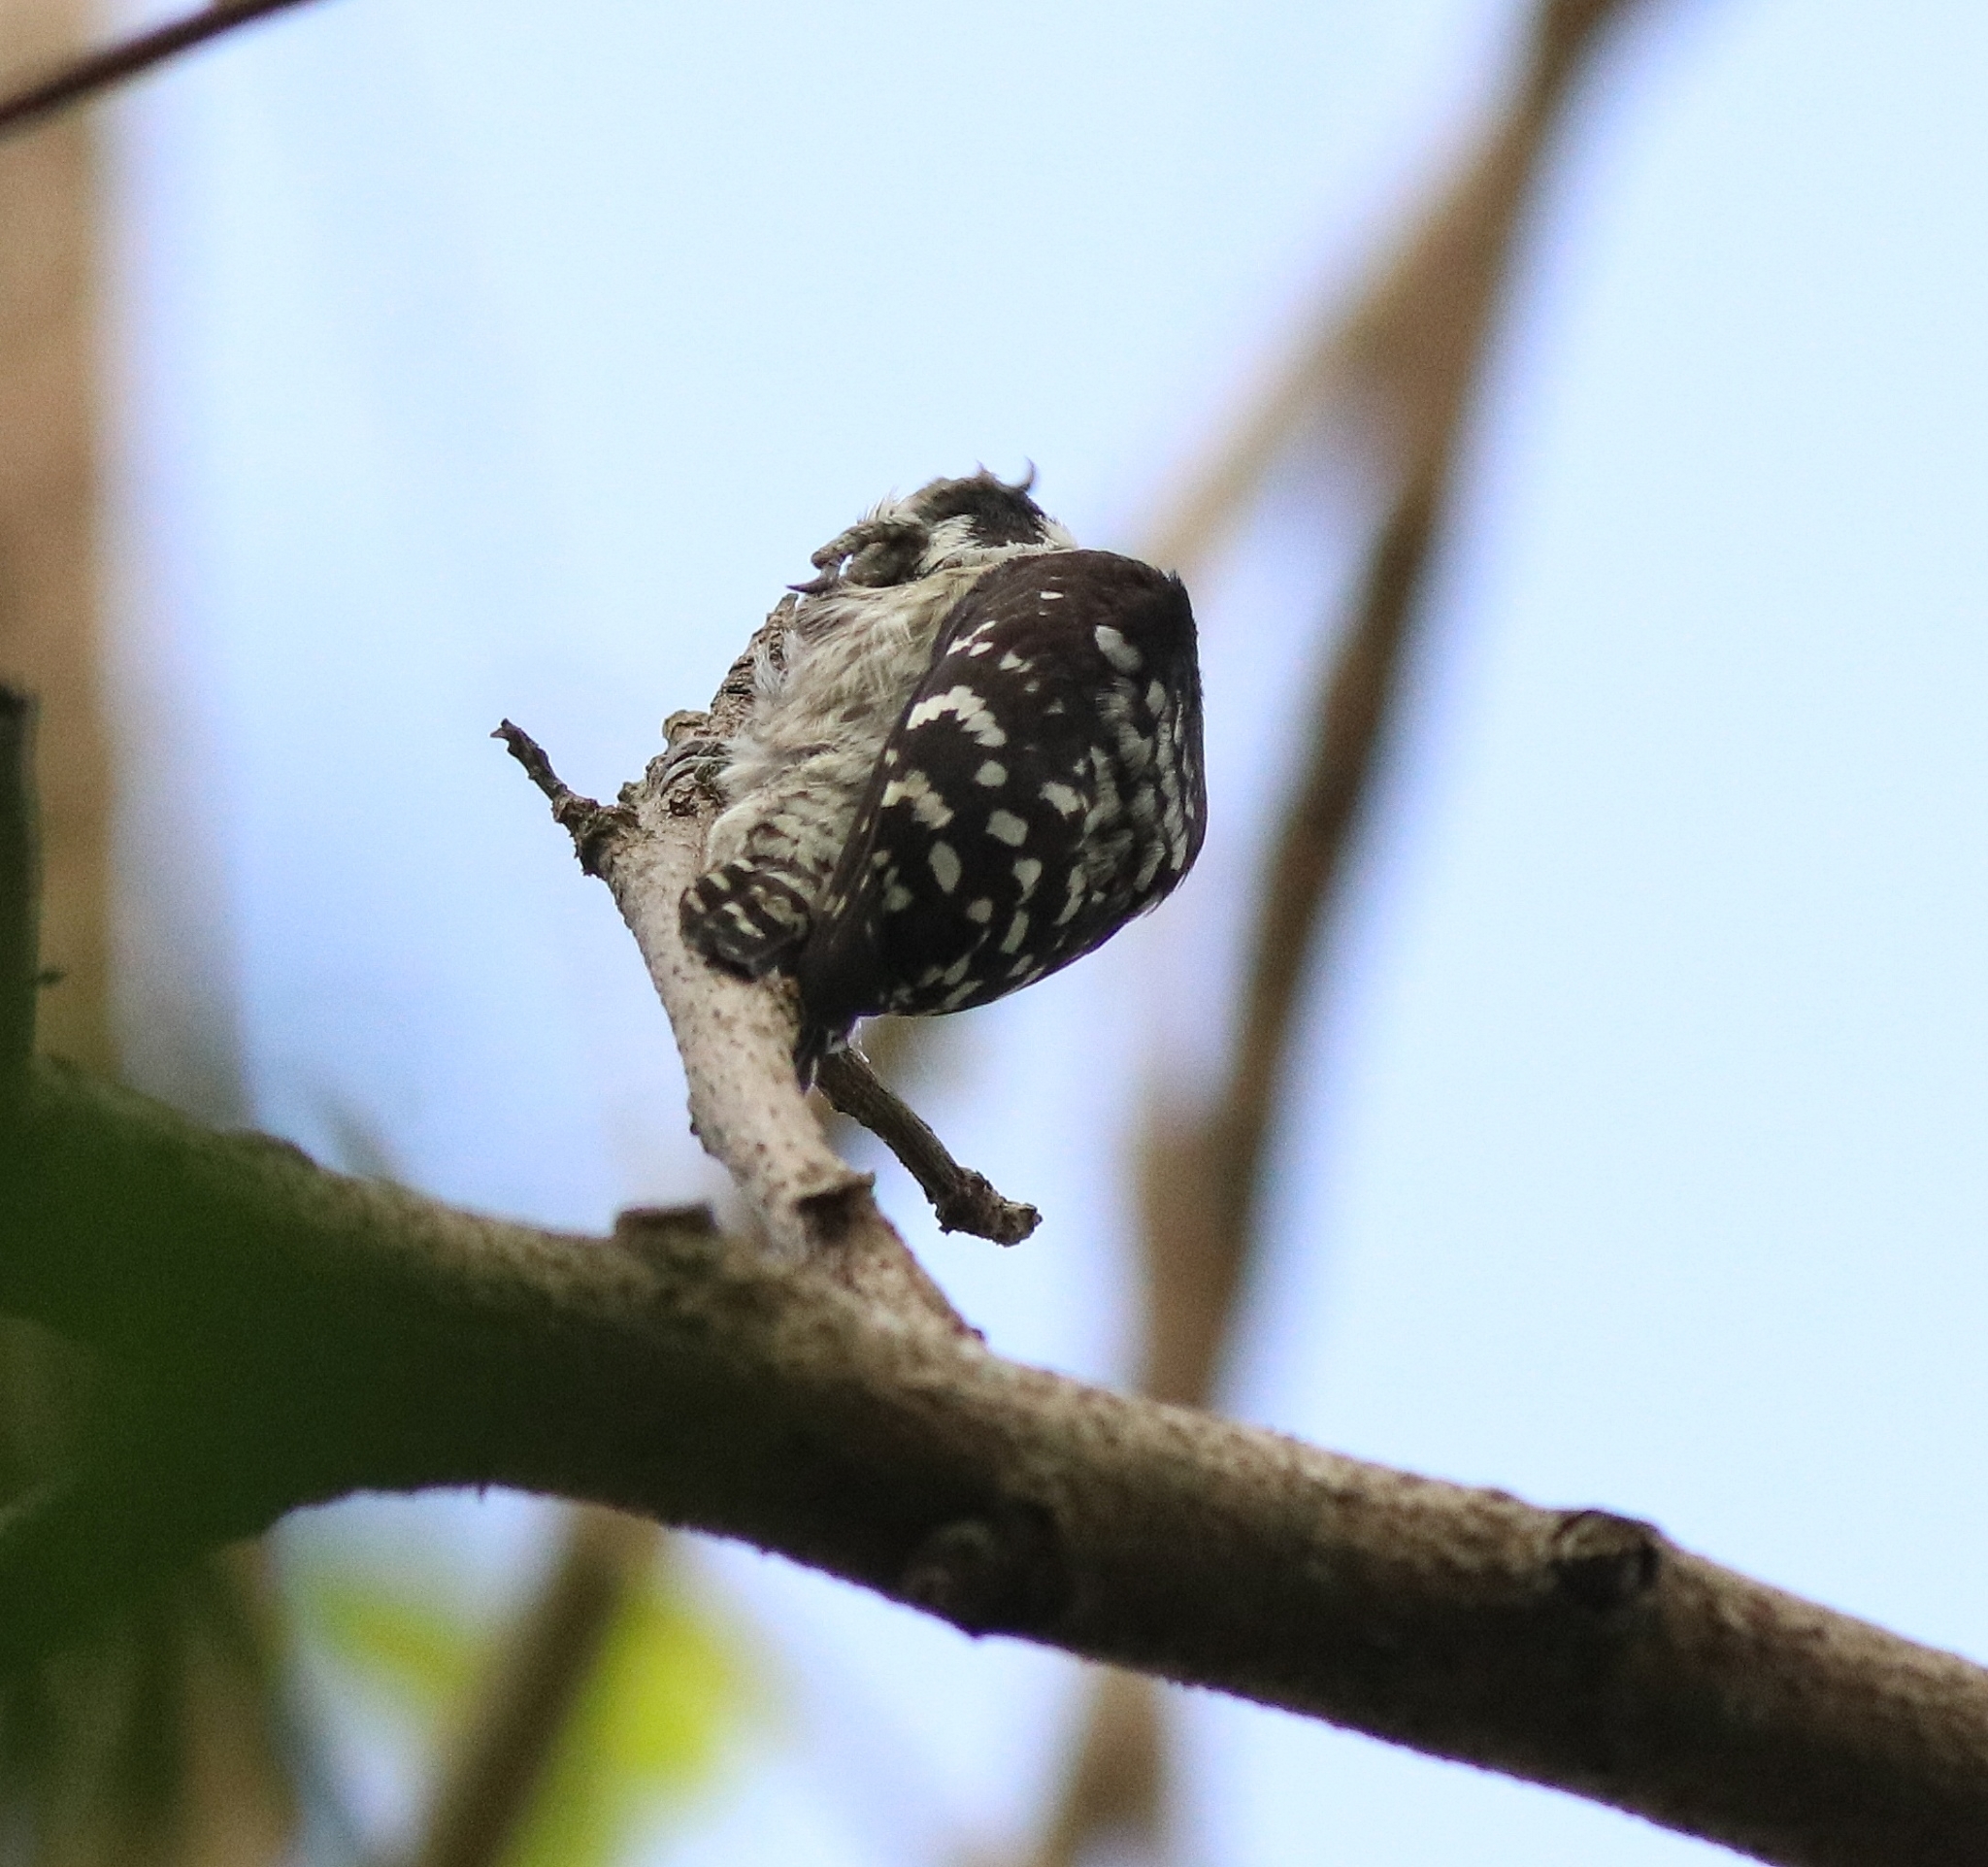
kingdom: Animalia
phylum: Chordata
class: Aves
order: Piciformes
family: Picidae
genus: Yungipicus
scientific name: Yungipicus nanus
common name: Brown-capped pygmy woodpecker
